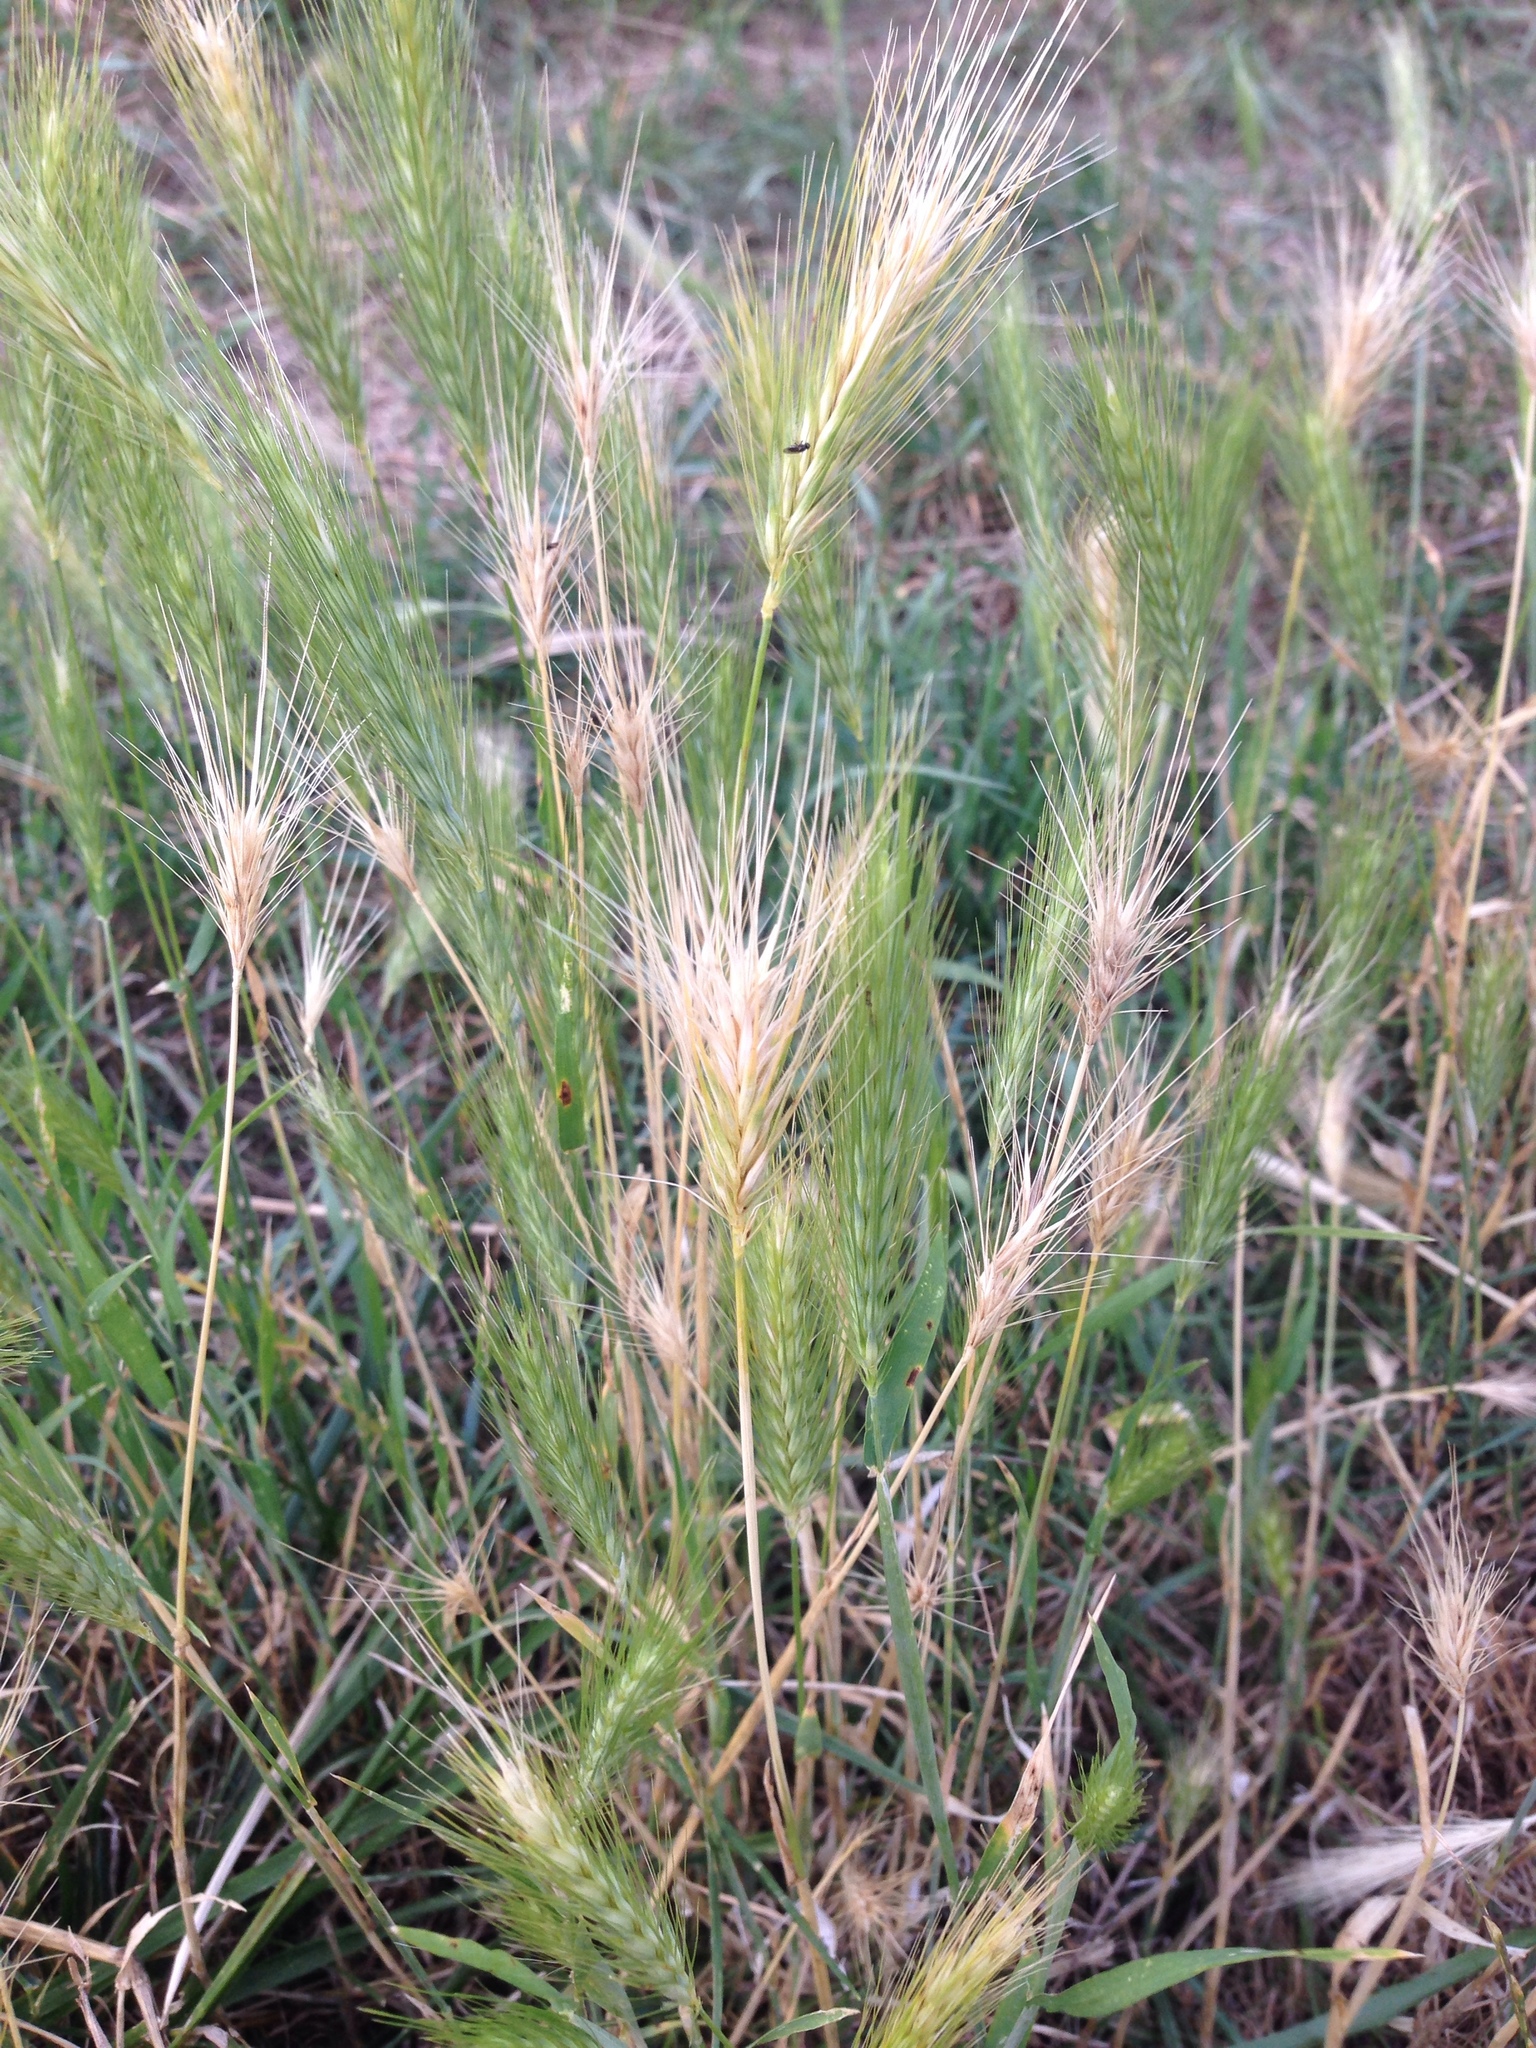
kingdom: Plantae
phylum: Tracheophyta
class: Liliopsida
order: Poales
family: Poaceae
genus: Hordeum
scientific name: Hordeum murinum
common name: Wall barley
